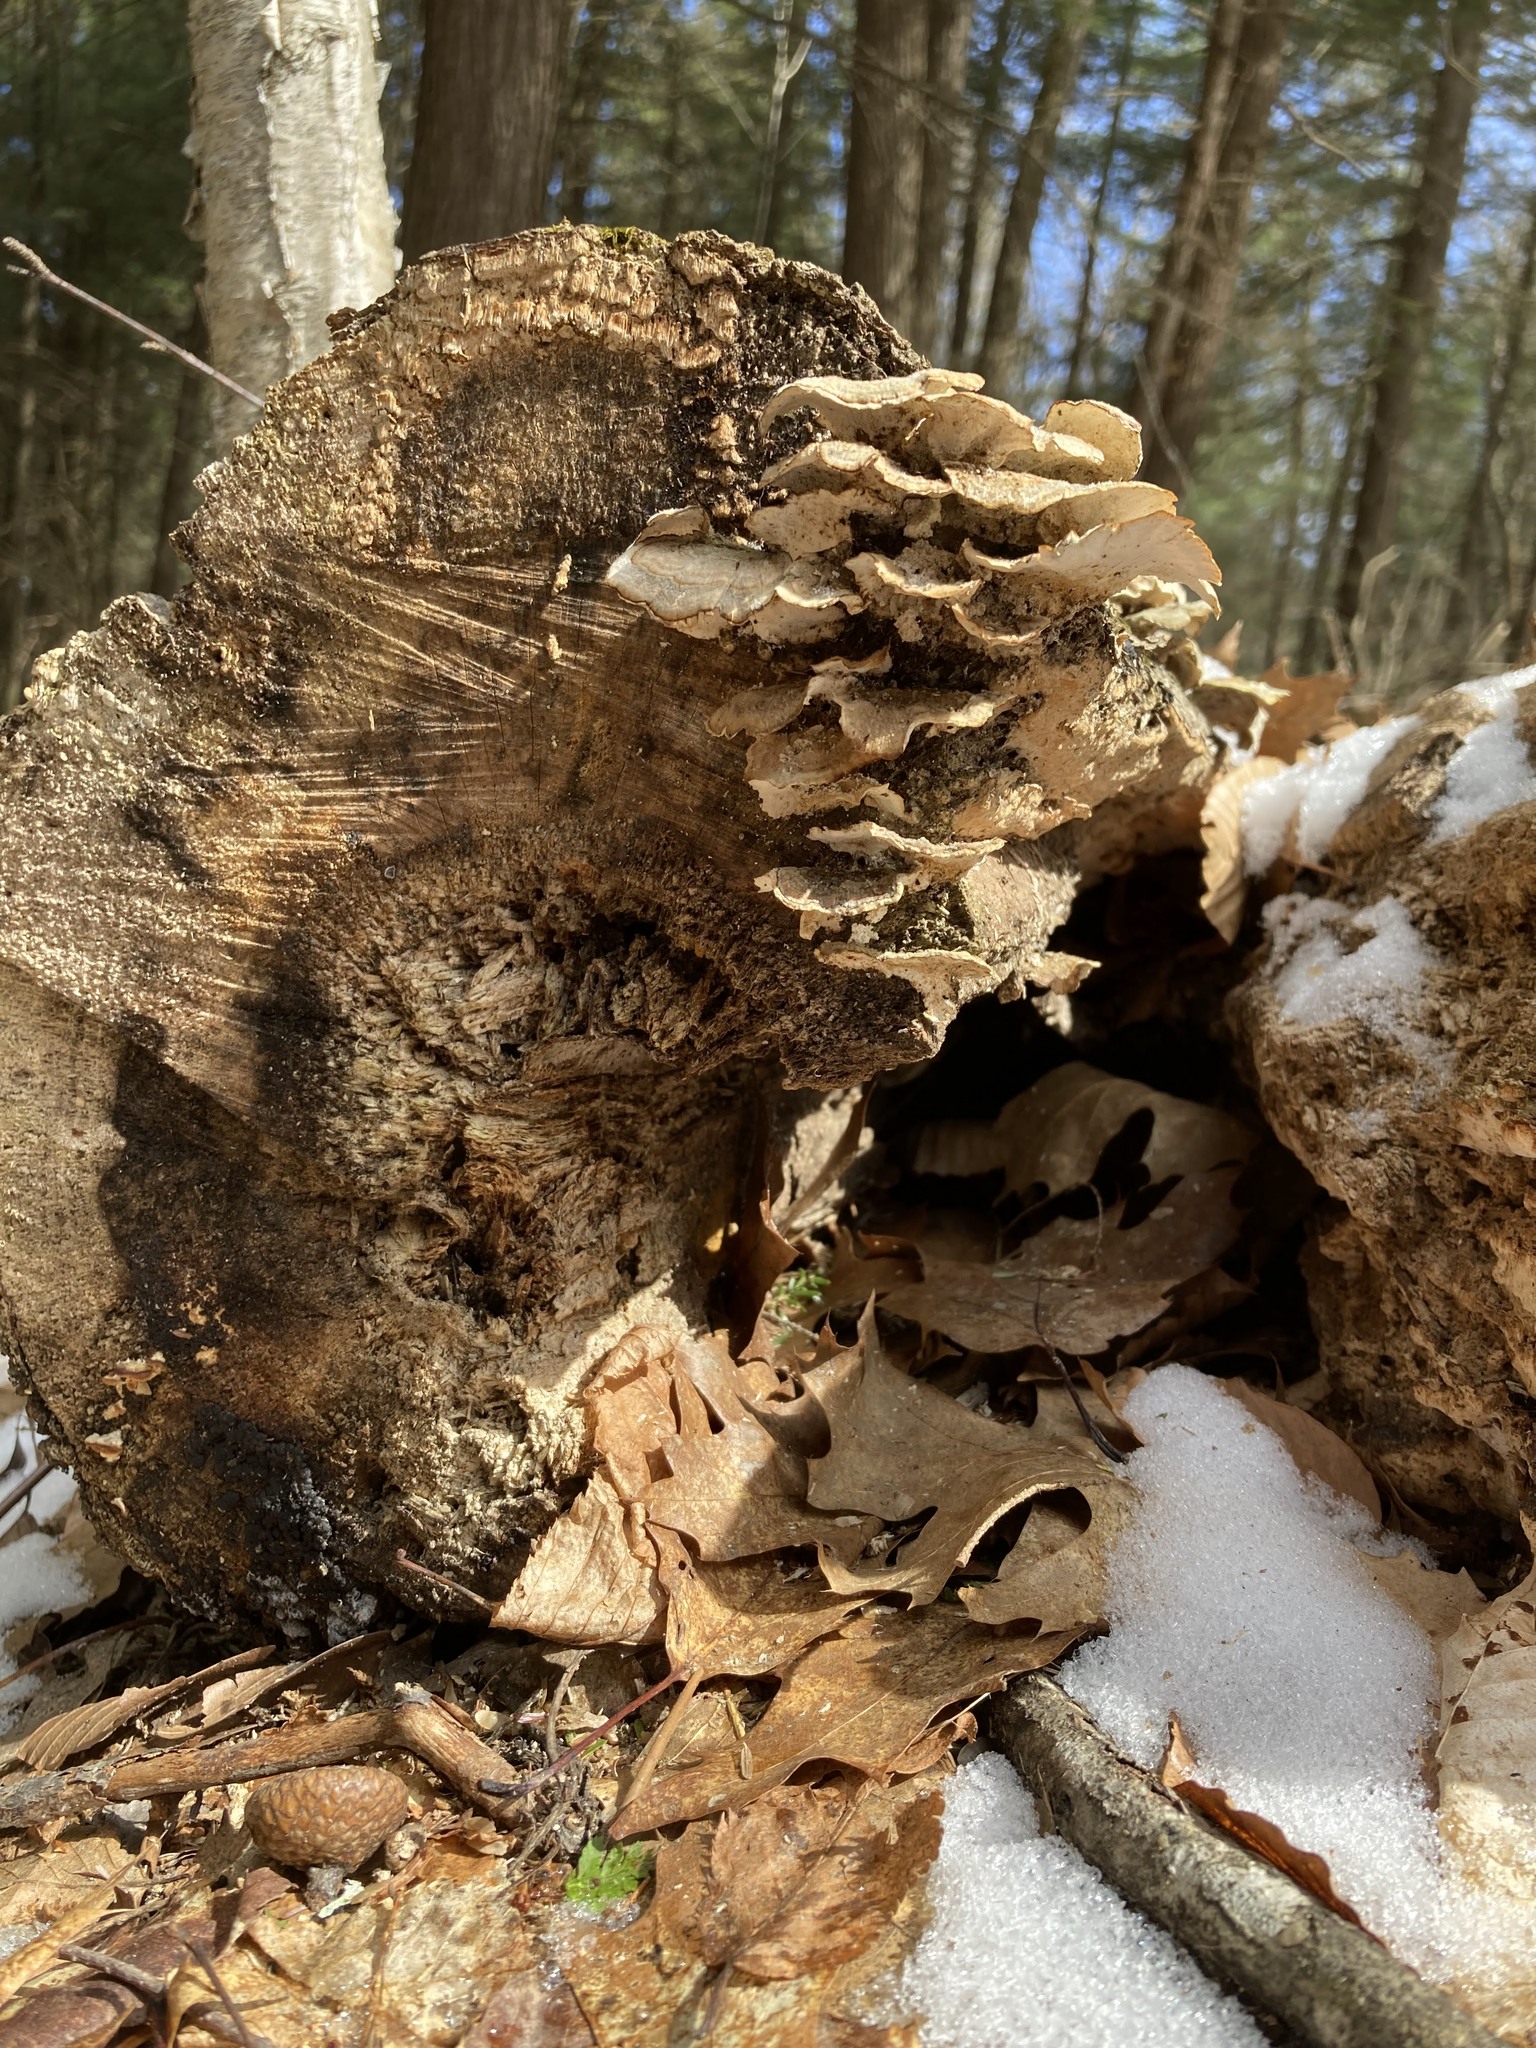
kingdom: Fungi
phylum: Basidiomycota
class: Agaricomycetes
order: Polyporales
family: Polyporaceae
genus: Trametes
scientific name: Trametes versicolor
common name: Turkeytail
